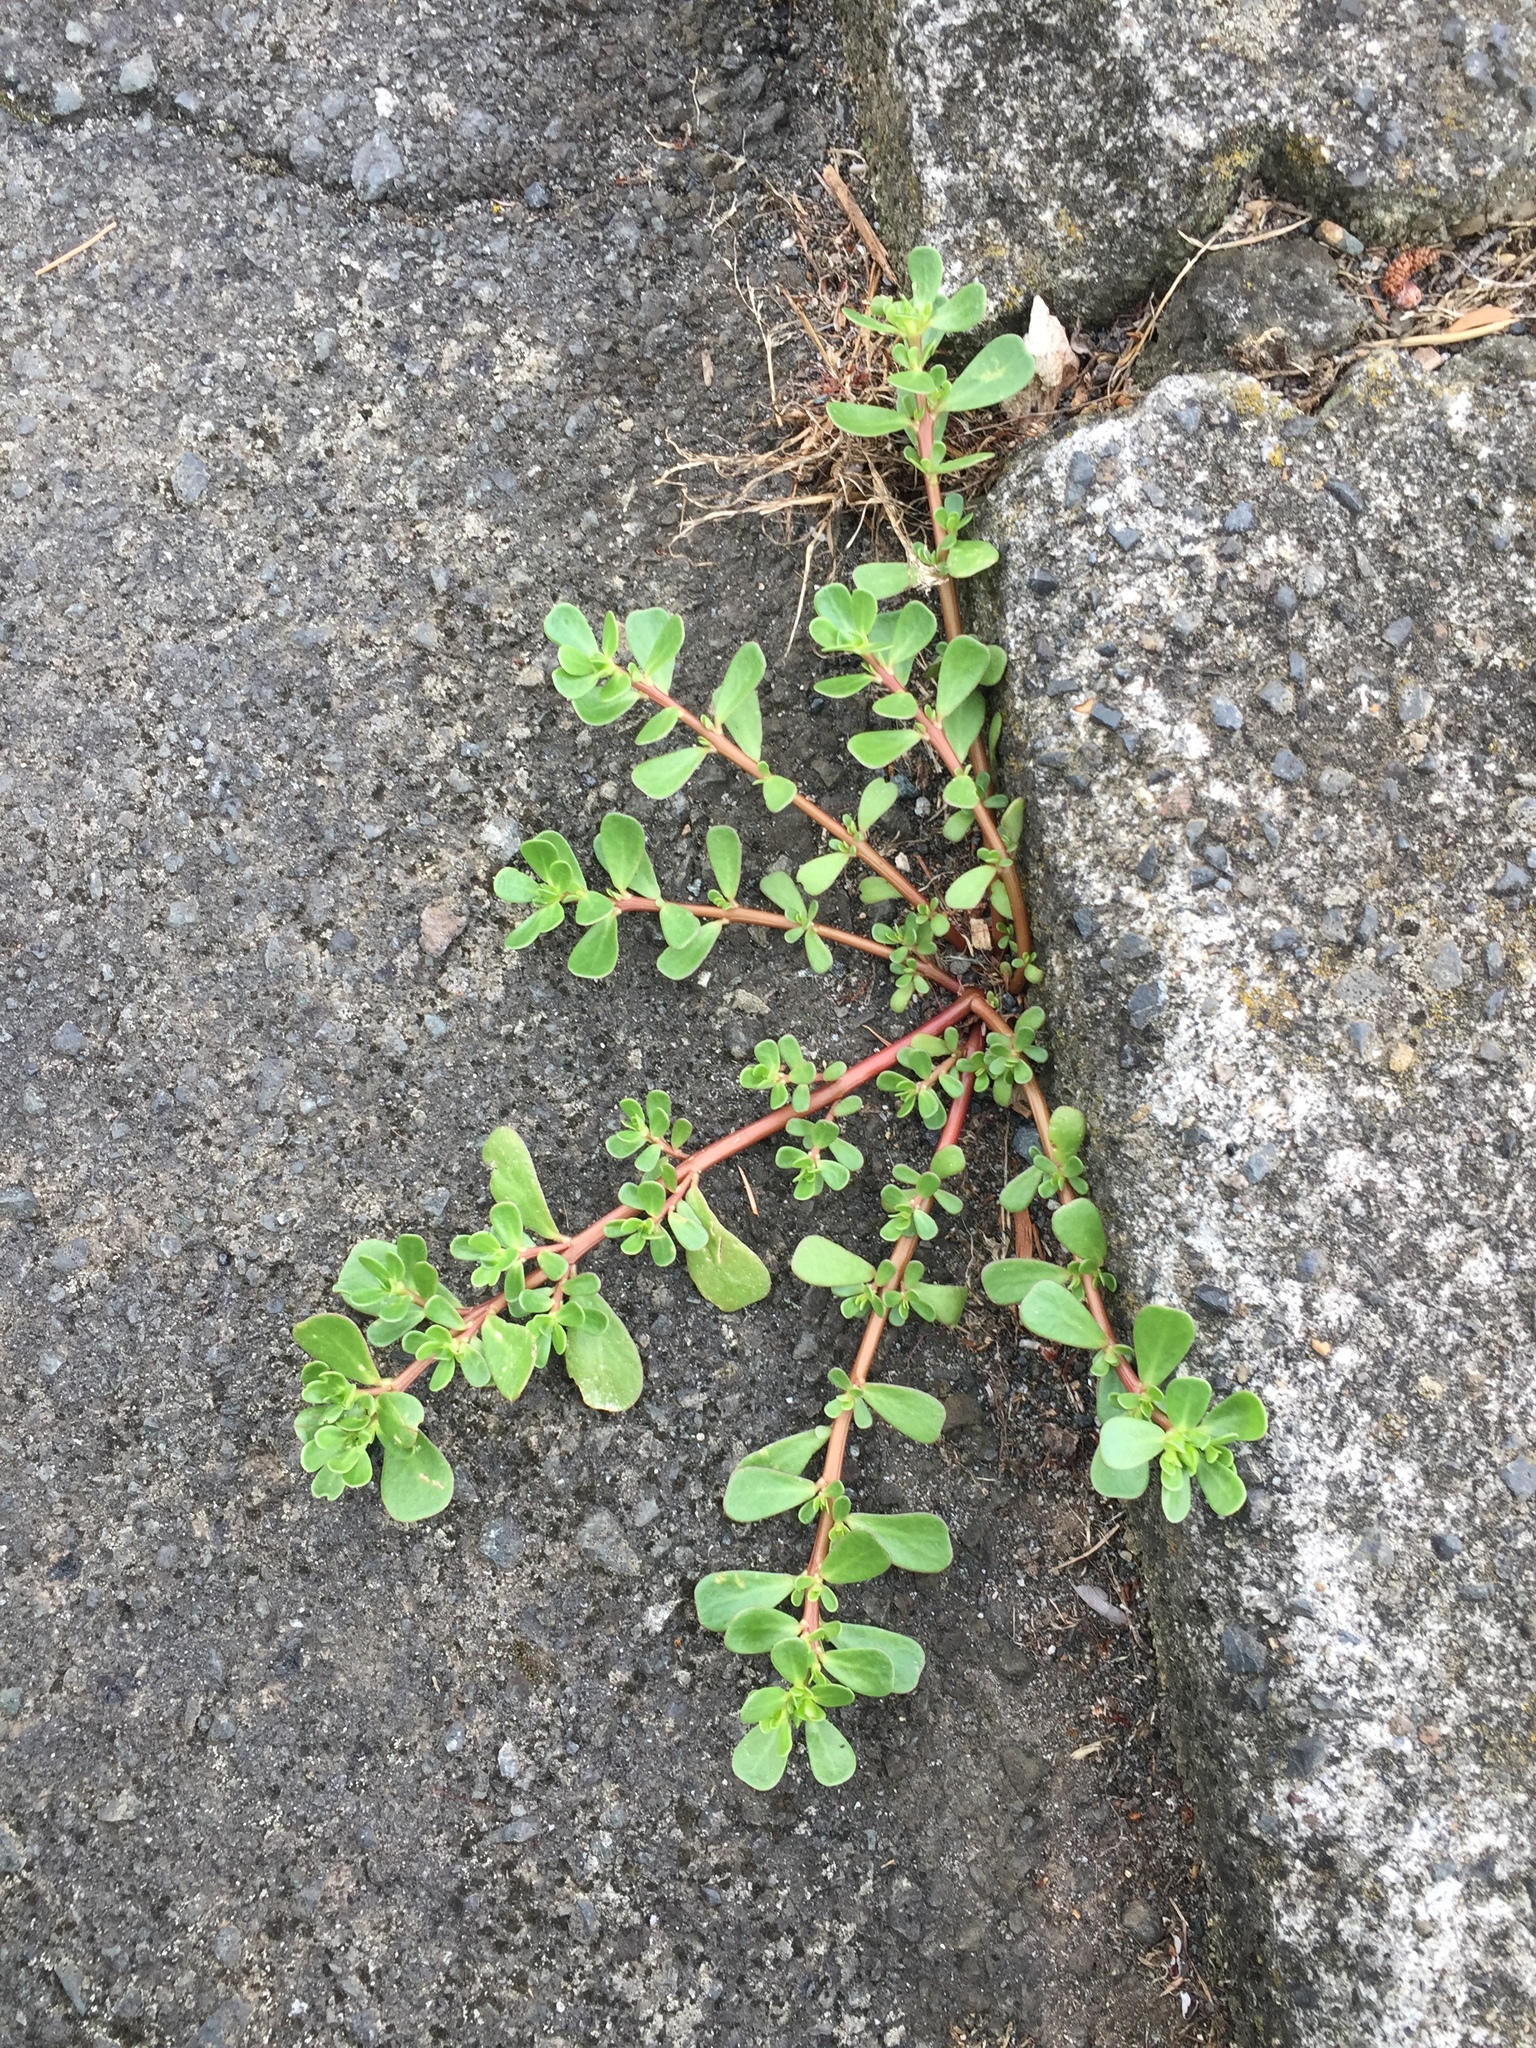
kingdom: Plantae
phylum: Tracheophyta
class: Magnoliopsida
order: Caryophyllales
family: Portulacaceae
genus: Portulaca
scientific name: Portulaca oleracea
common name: Common purslane
